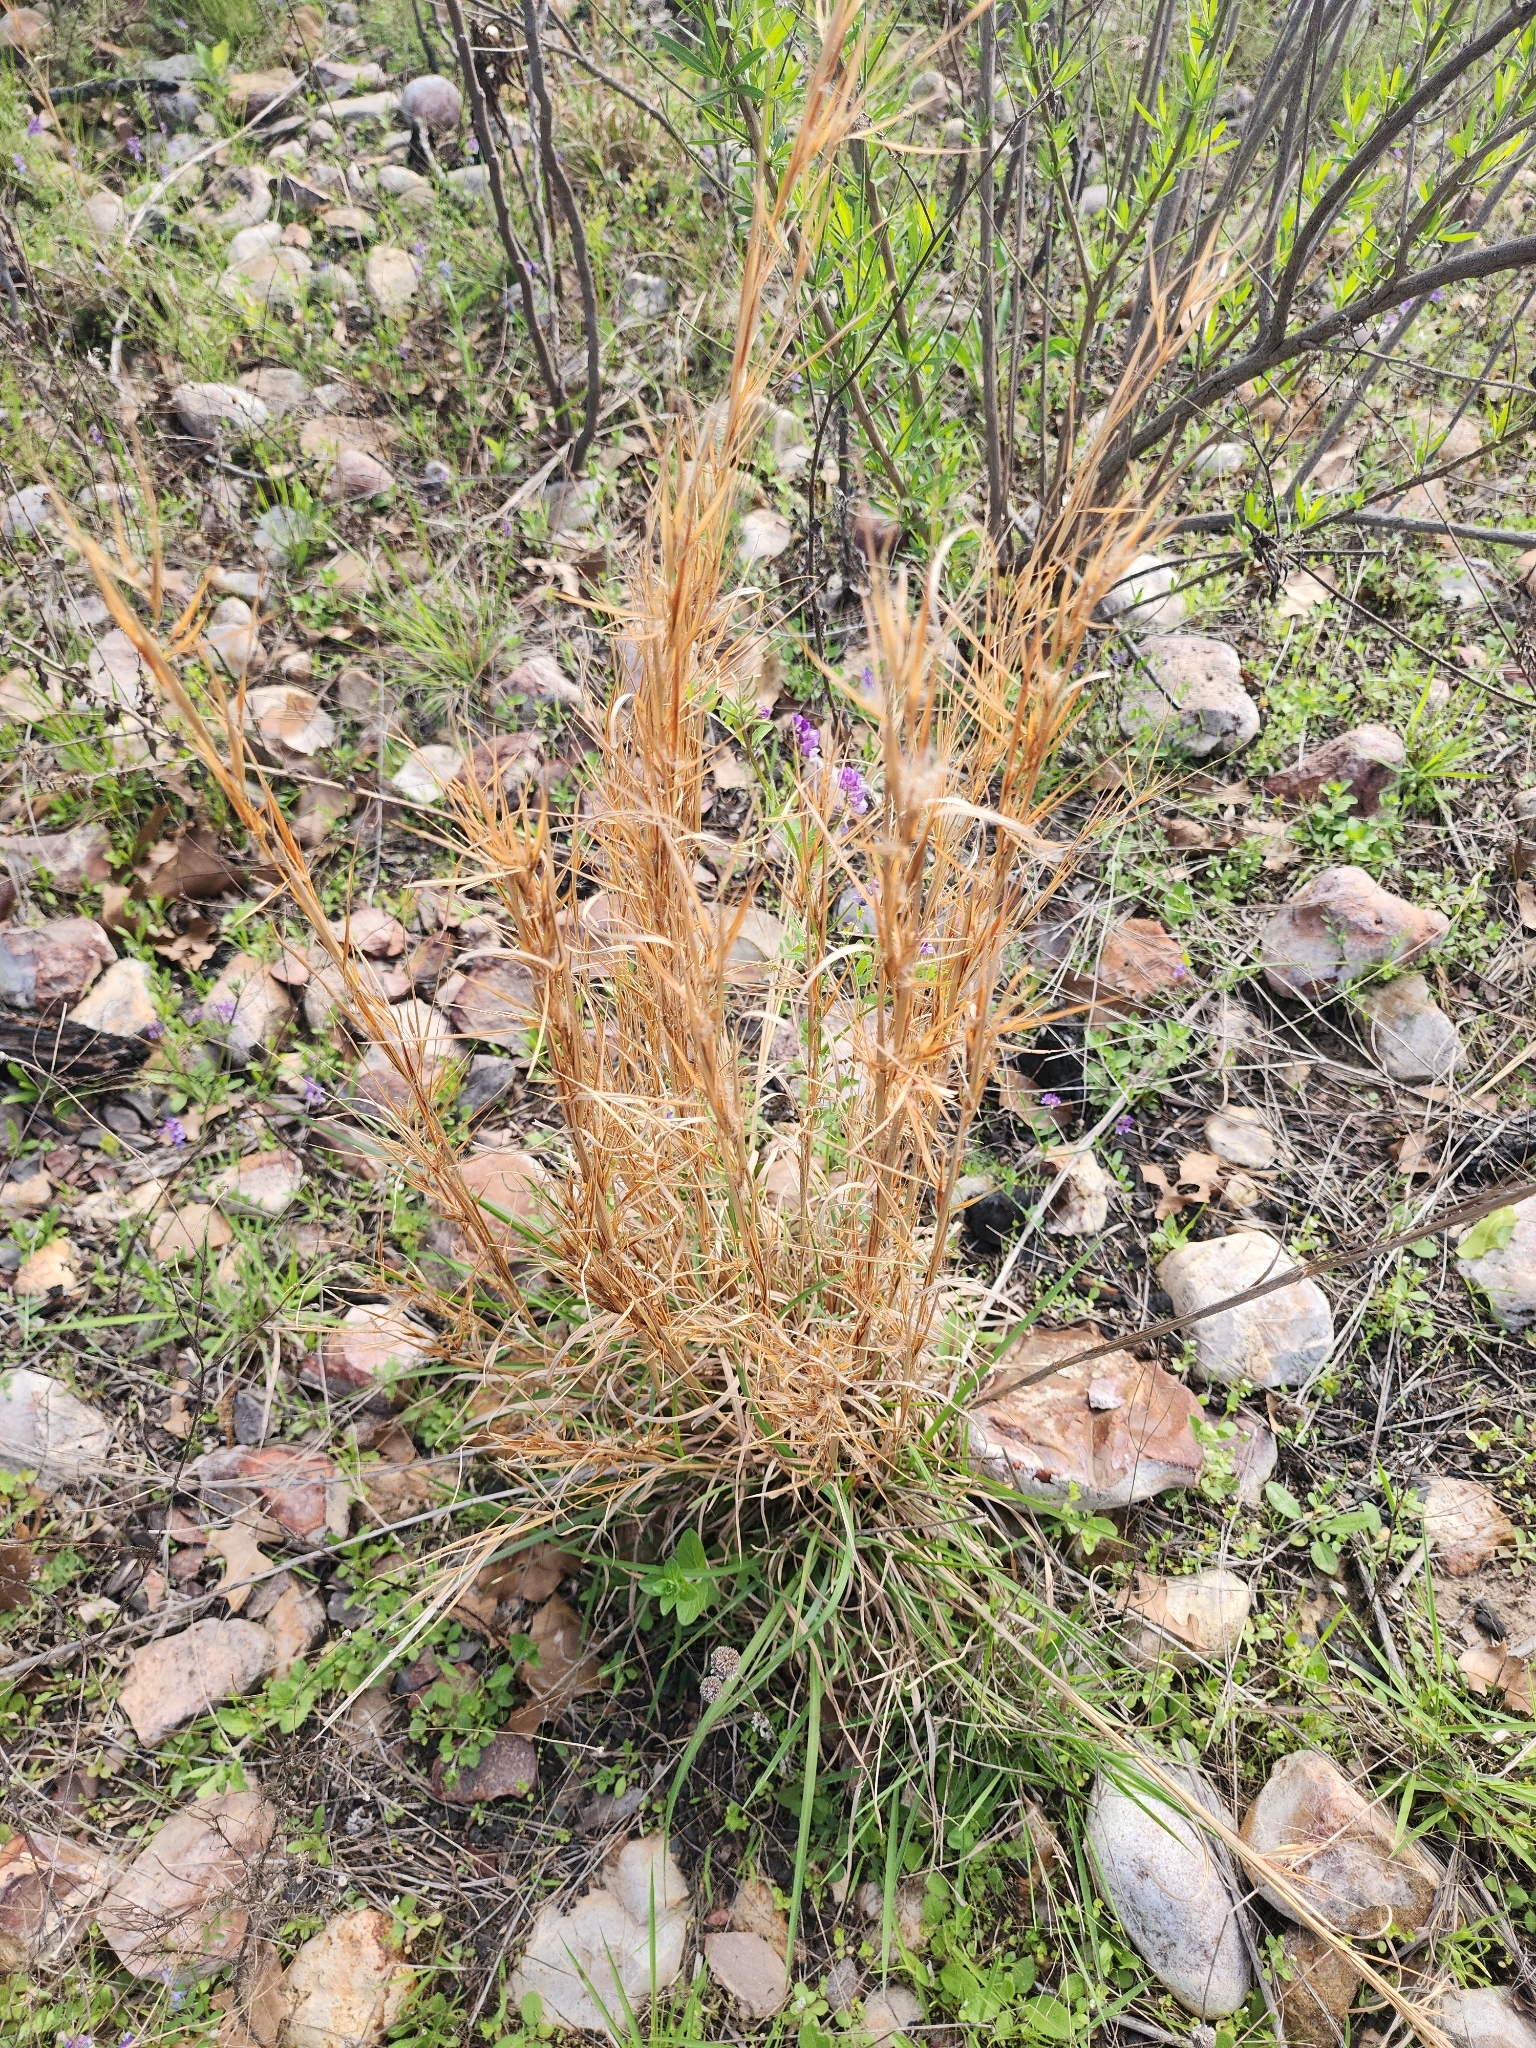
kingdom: Plantae
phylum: Tracheophyta
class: Liliopsida
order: Poales
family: Poaceae
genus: Andropogon
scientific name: Andropogon virginicus
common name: Broomsedge bluestem
